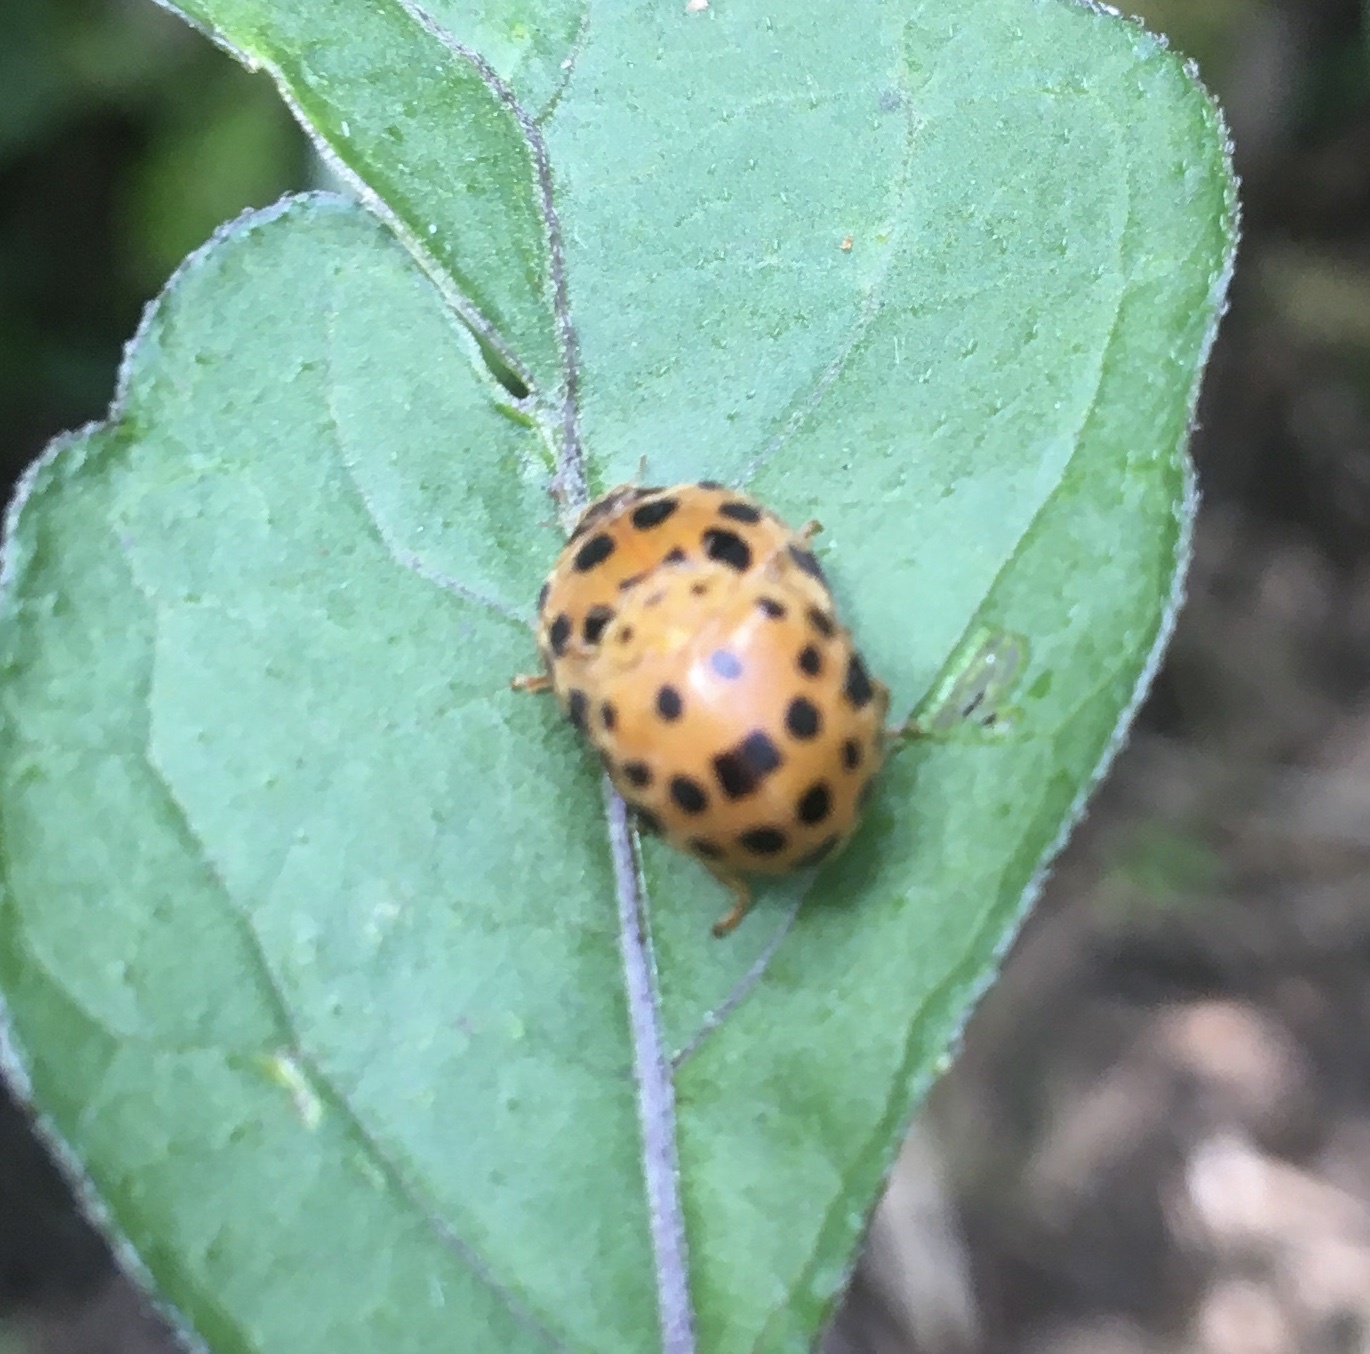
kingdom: Animalia
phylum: Arthropoda
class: Insecta
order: Coleoptera
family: Coccinellidae
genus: Henosepilachna
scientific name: Henosepilachna vigintioctopunctata
